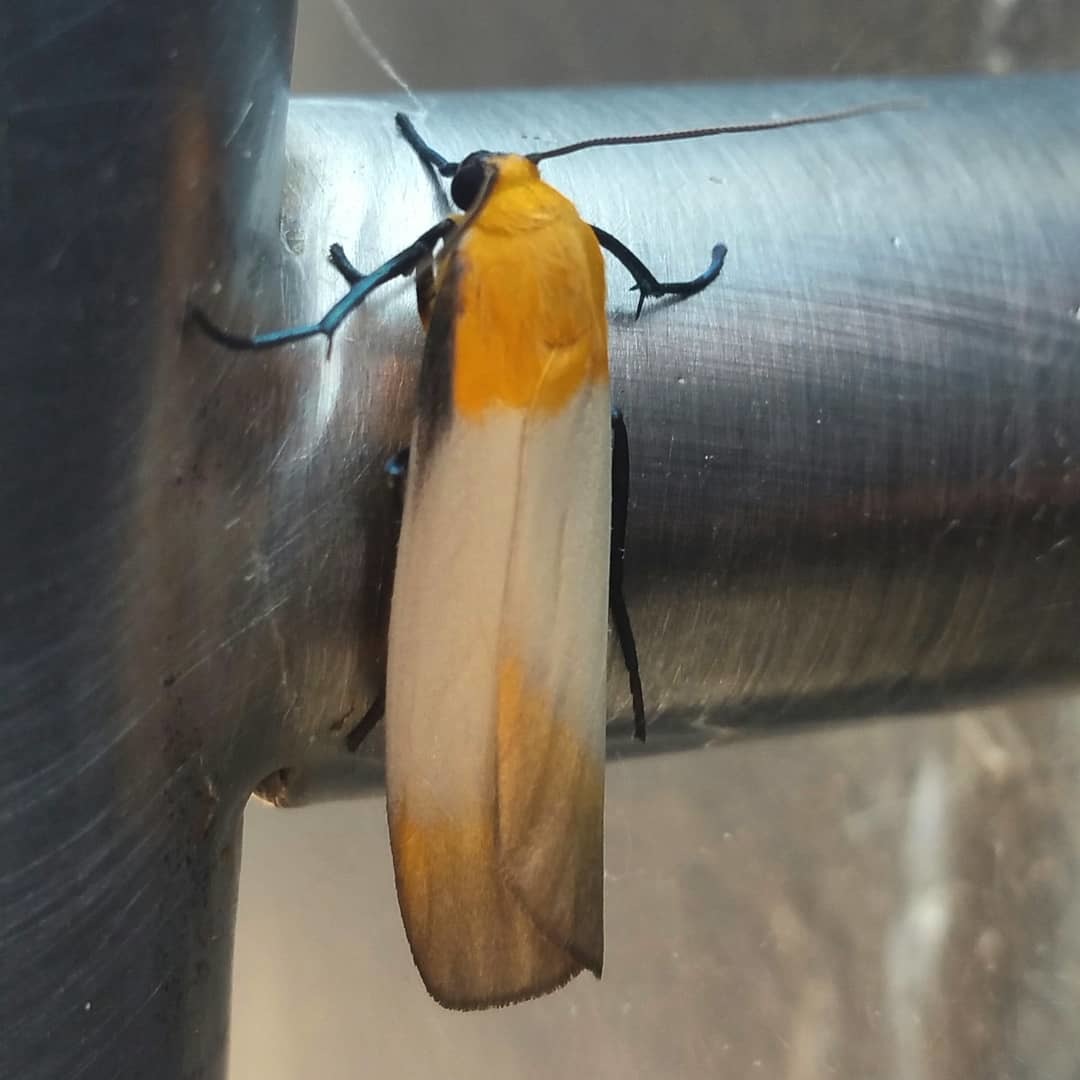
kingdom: Animalia
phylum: Arthropoda
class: Insecta
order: Lepidoptera
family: Erebidae
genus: Lithosia
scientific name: Lithosia quadra
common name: Four-spotted footman
